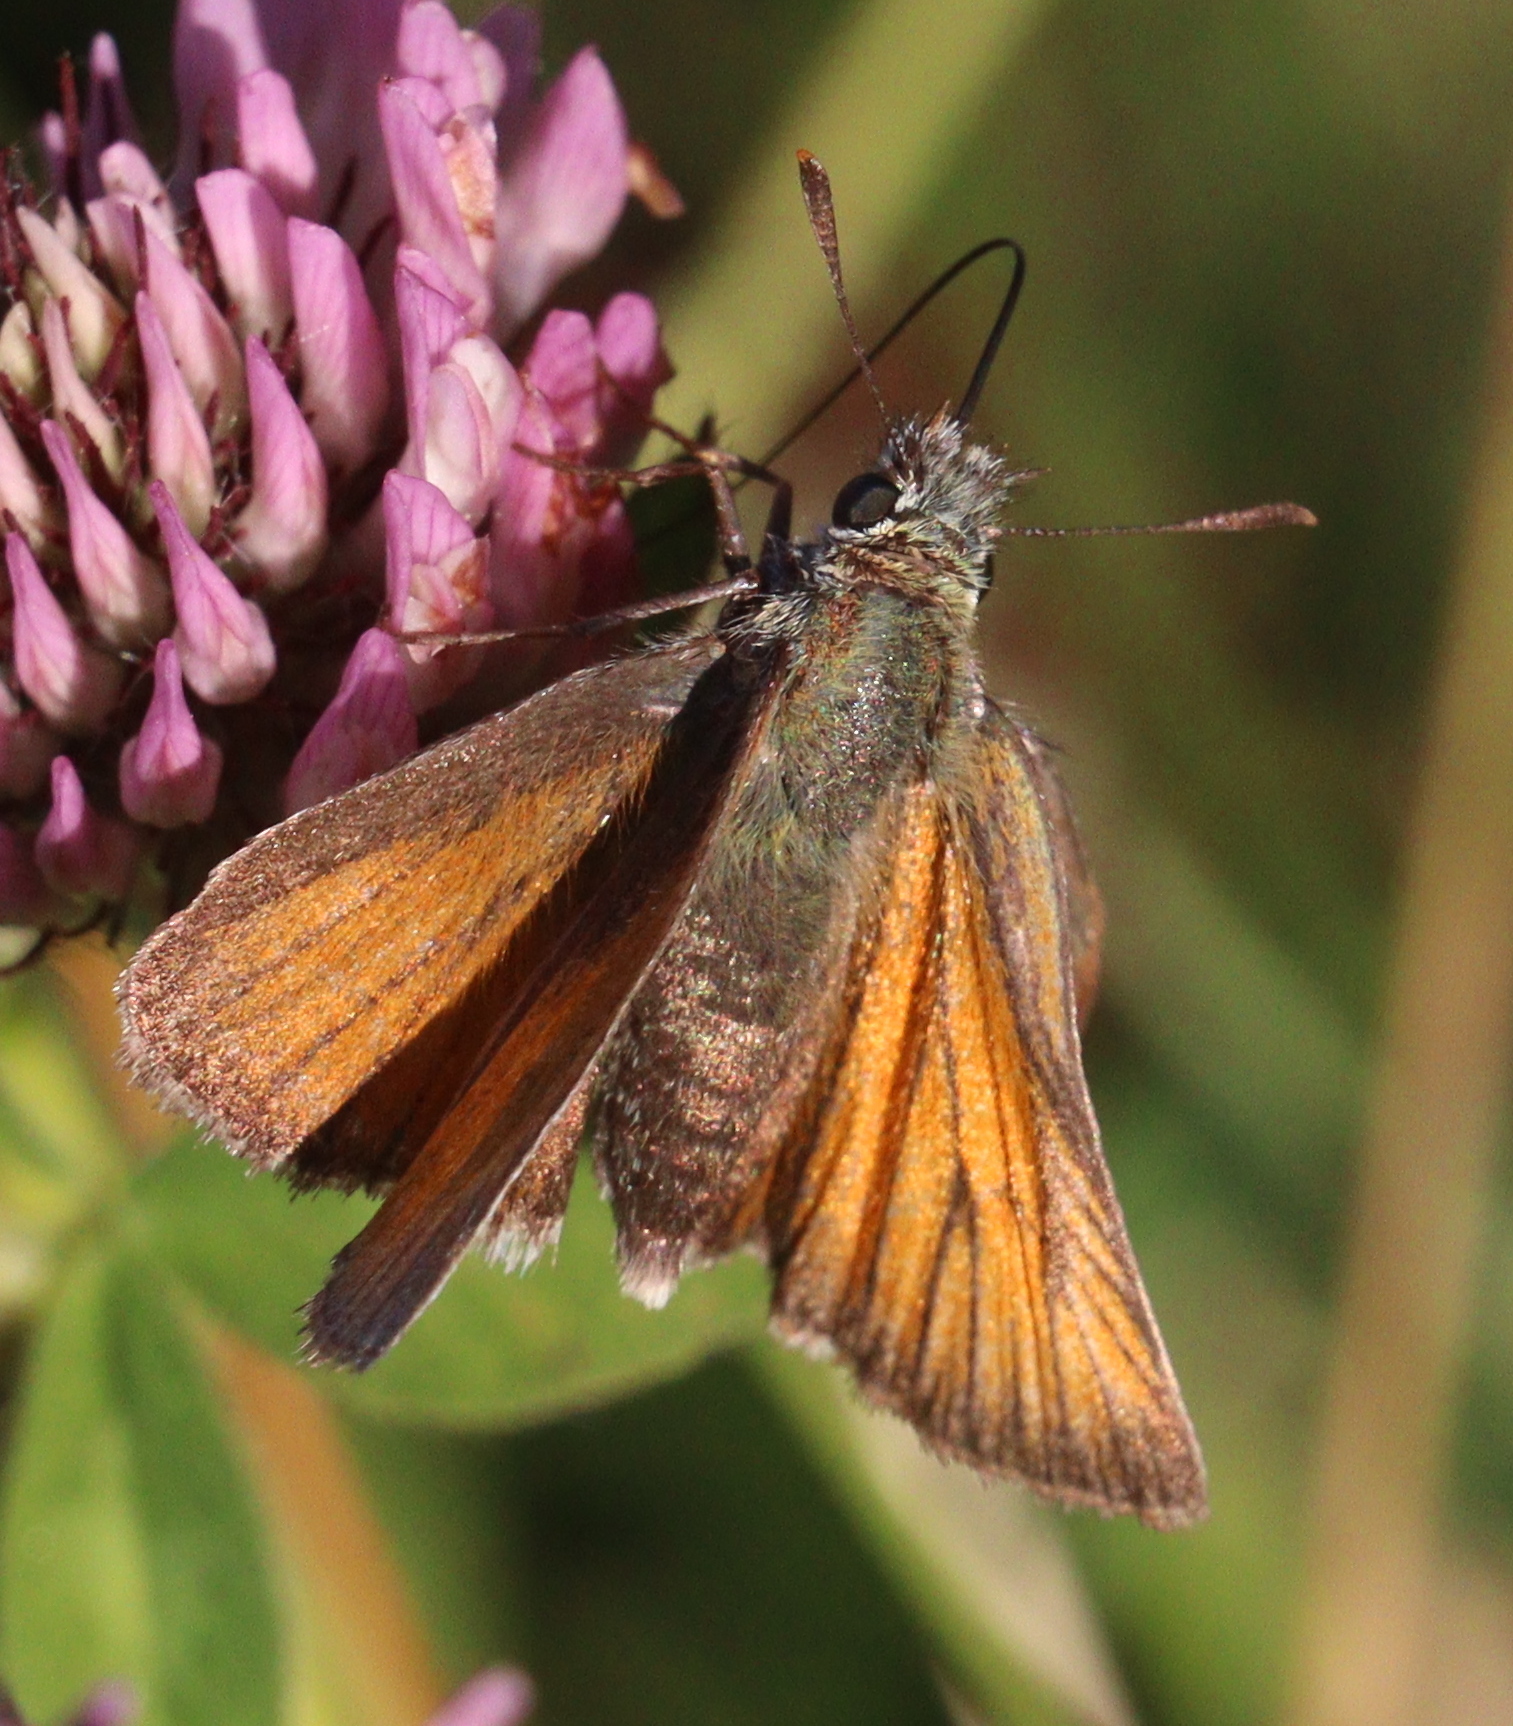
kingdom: Animalia
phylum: Arthropoda
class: Insecta
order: Lepidoptera
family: Hesperiidae
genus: Thymelicus
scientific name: Thymelicus sylvestris
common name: Small skipper
